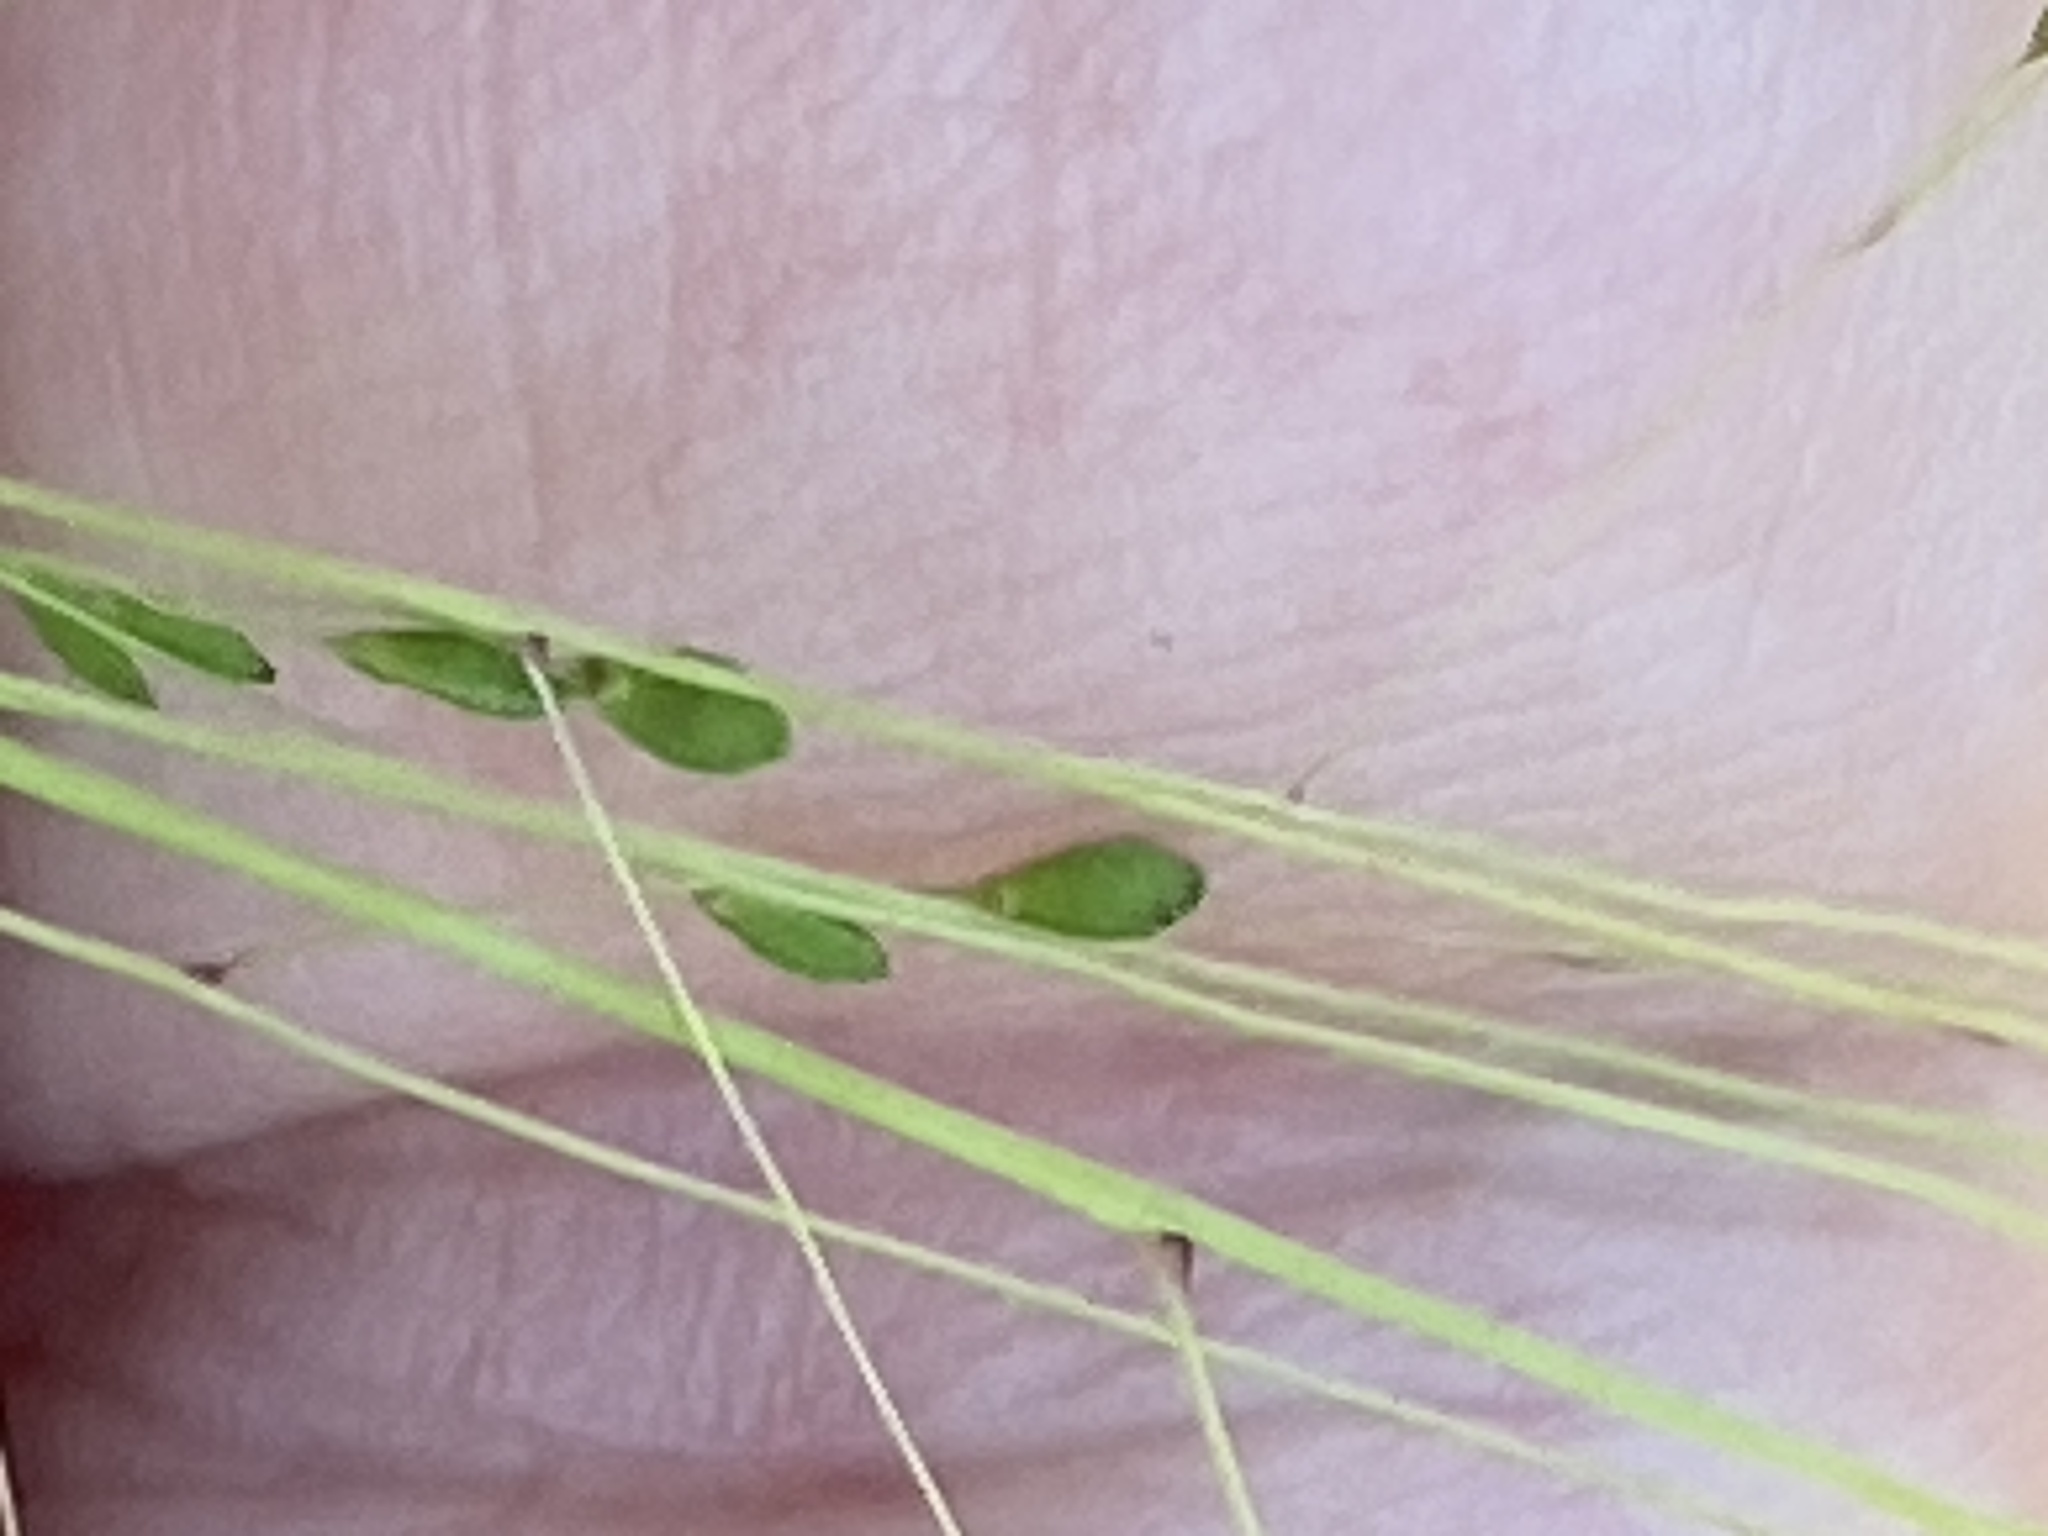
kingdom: Plantae
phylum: Tracheophyta
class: Liliopsida
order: Poales
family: Poaceae
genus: Kellochloa
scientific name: Kellochloa verrucosa
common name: Warty panic grass
